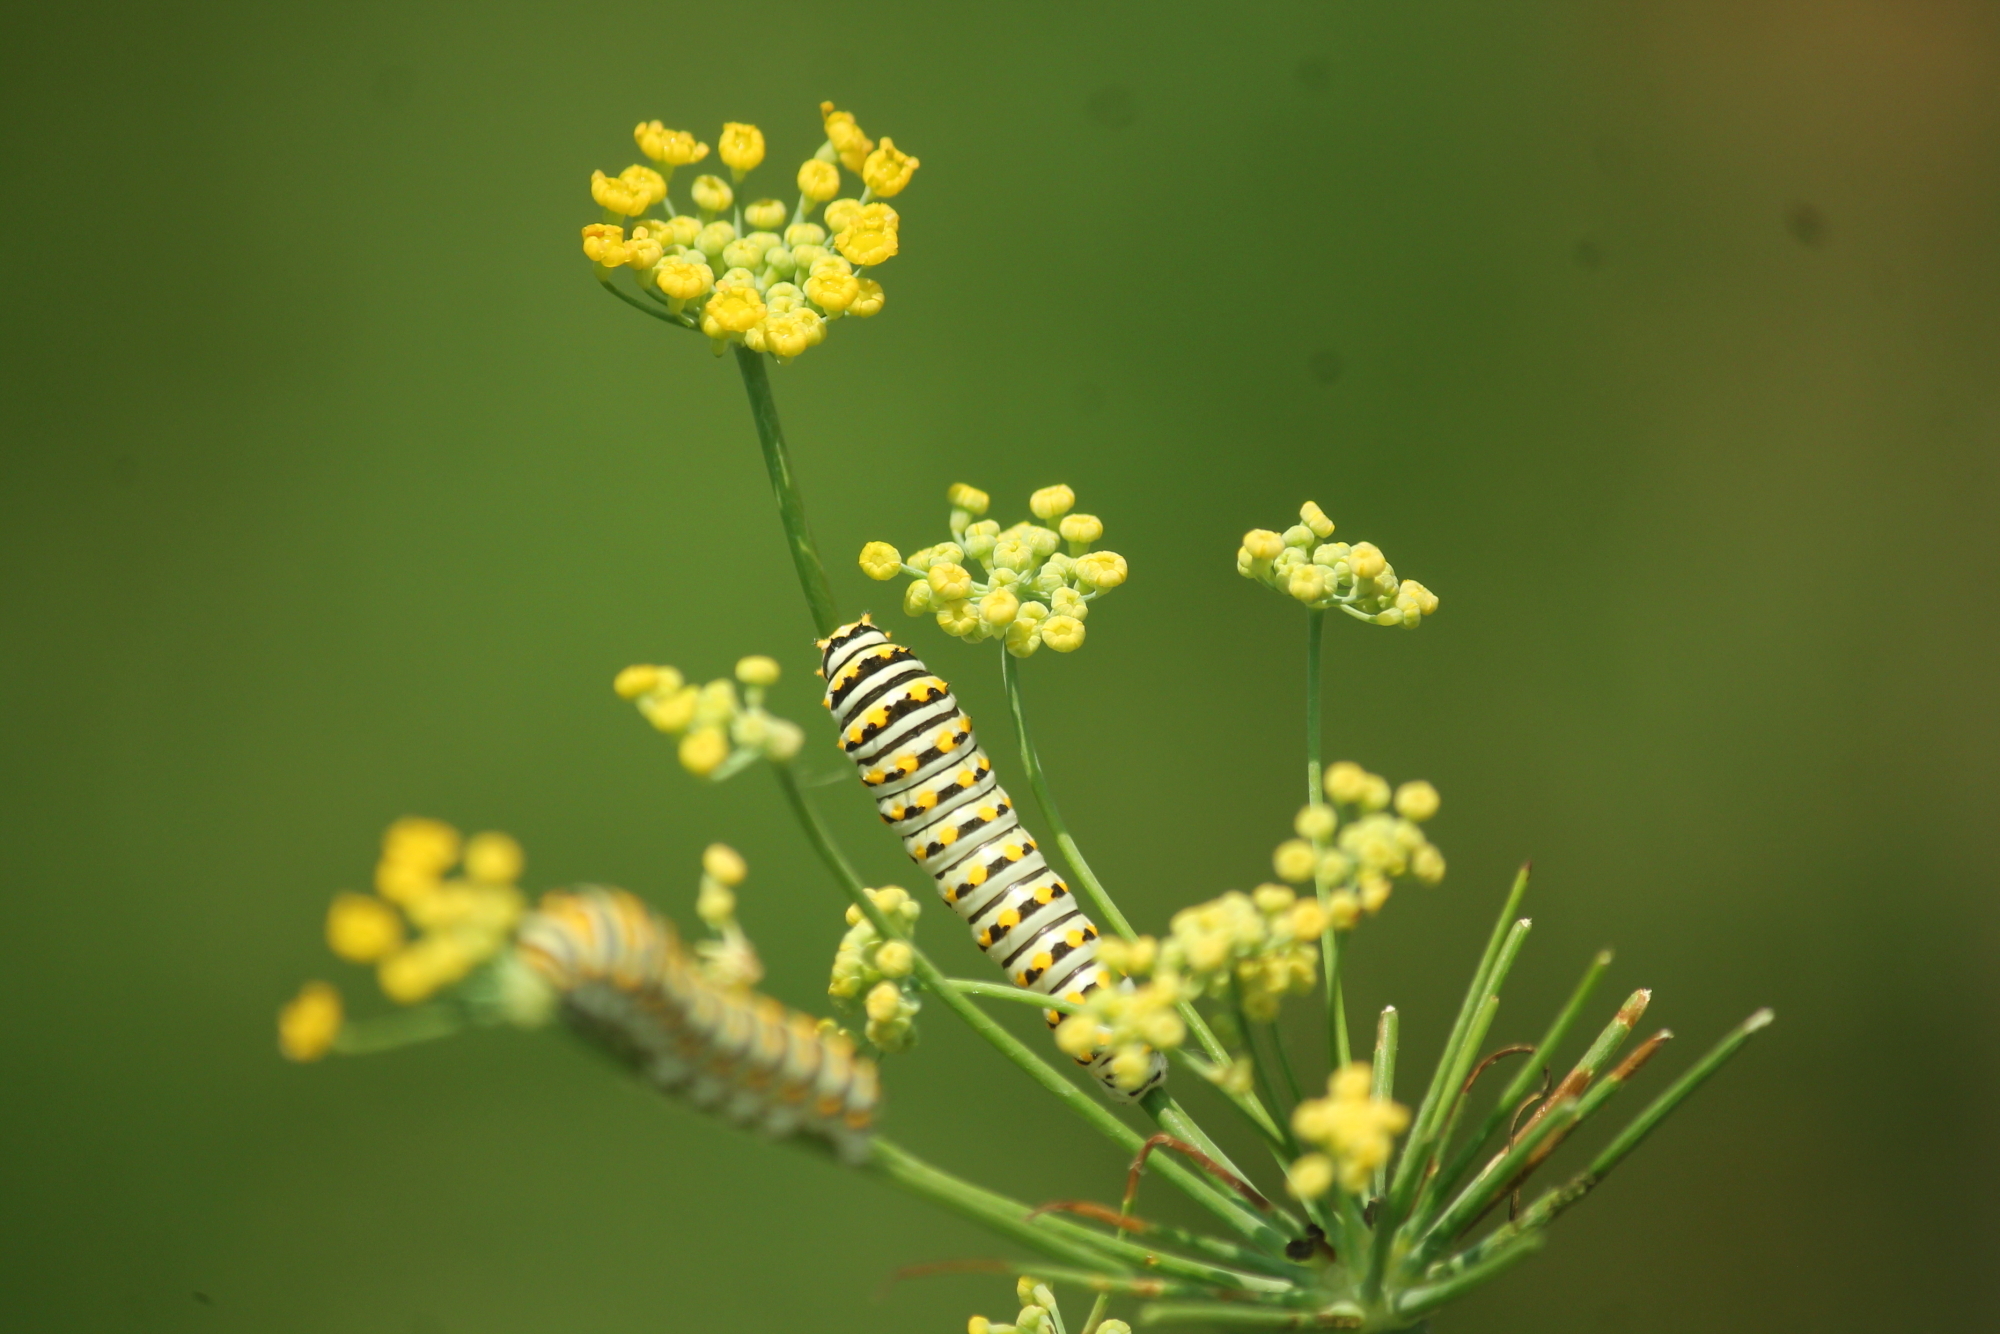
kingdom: Animalia
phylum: Arthropoda
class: Insecta
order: Lepidoptera
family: Papilionidae
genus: Papilio
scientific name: Papilio polyxenes
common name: Black swallowtail
